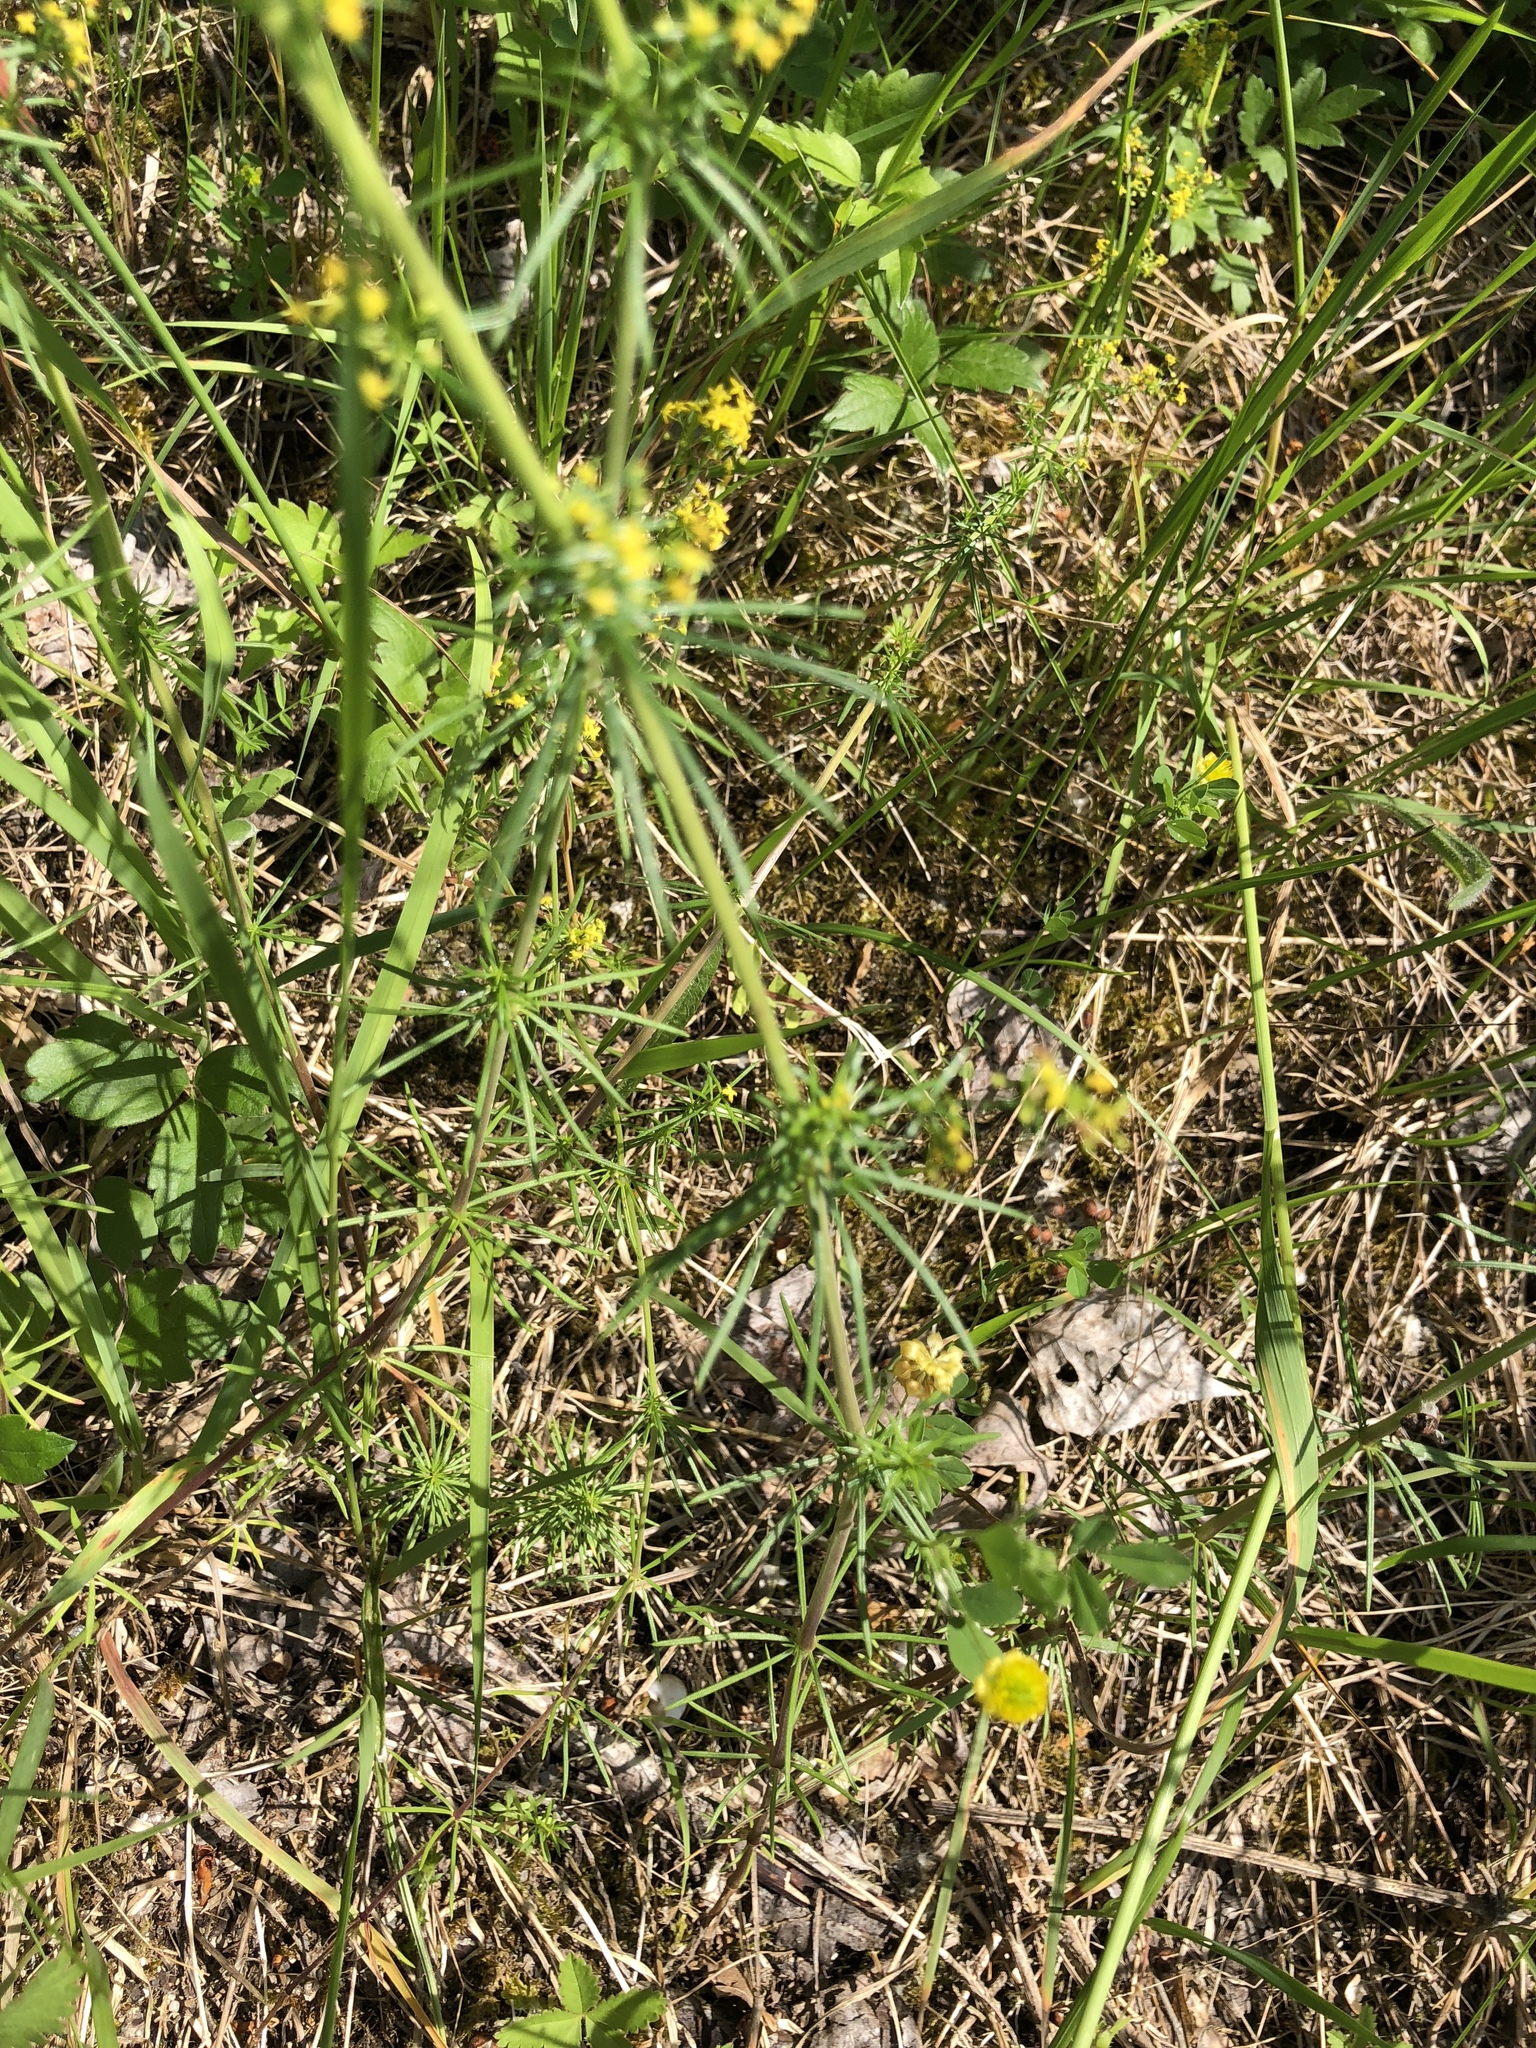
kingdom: Plantae
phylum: Tracheophyta
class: Magnoliopsida
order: Gentianales
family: Rubiaceae
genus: Galium
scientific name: Galium verum
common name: Lady's bedstraw
